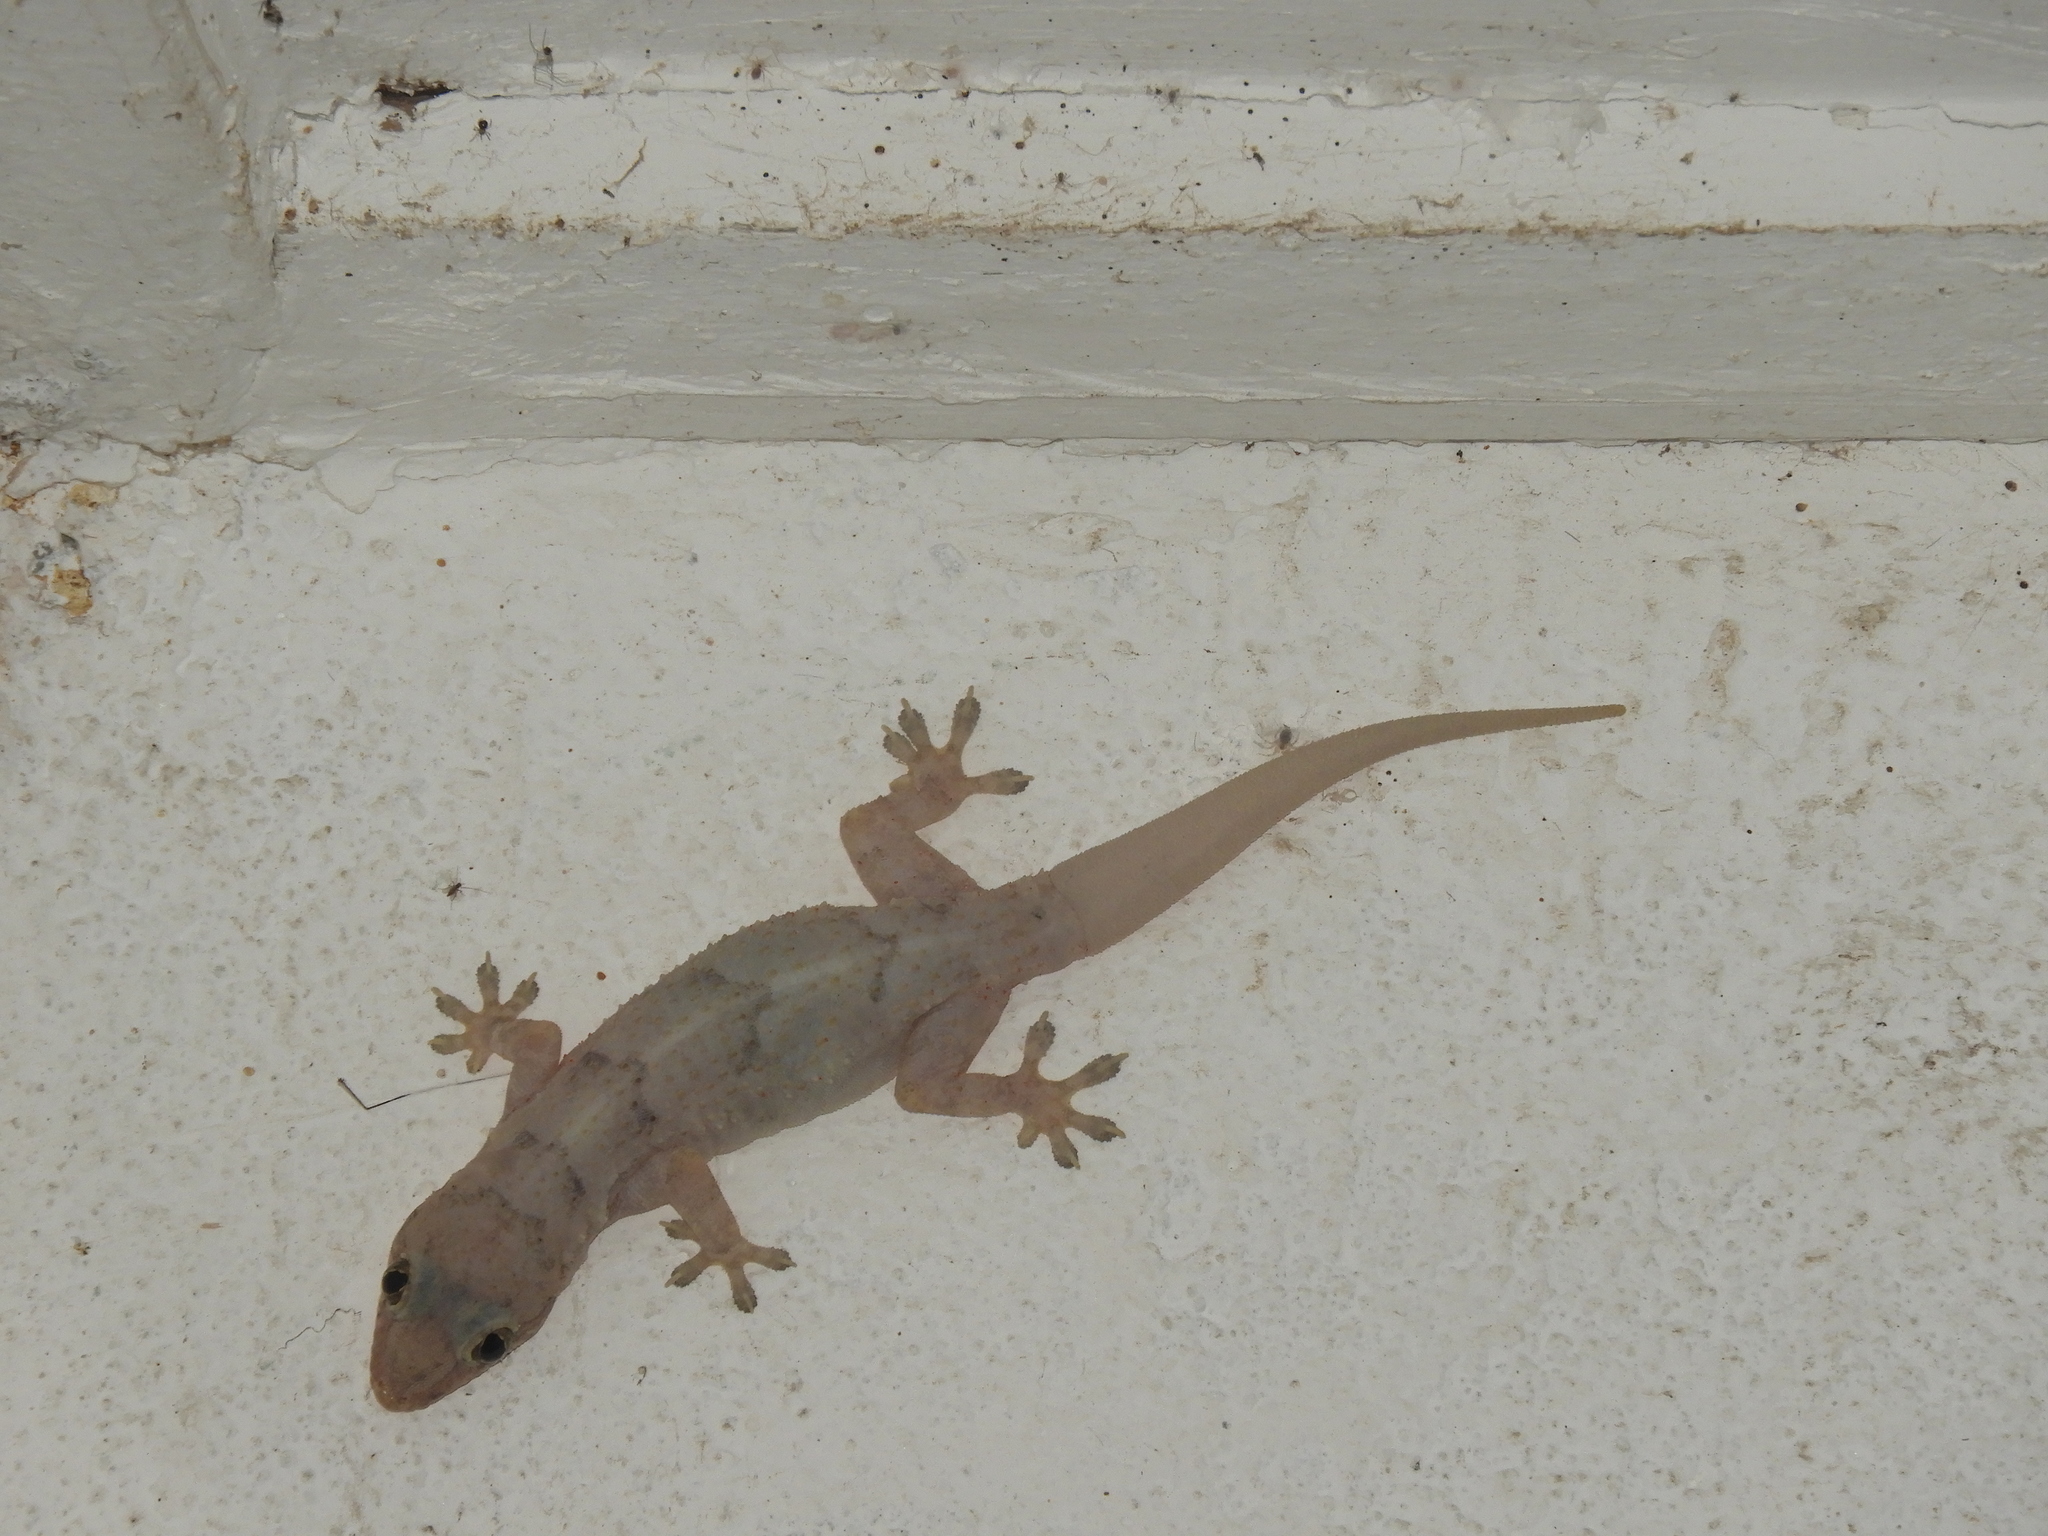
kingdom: Animalia
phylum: Chordata
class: Squamata
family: Gekkonidae
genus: Hemidactylus
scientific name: Hemidactylus mabouia
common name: House gecko
